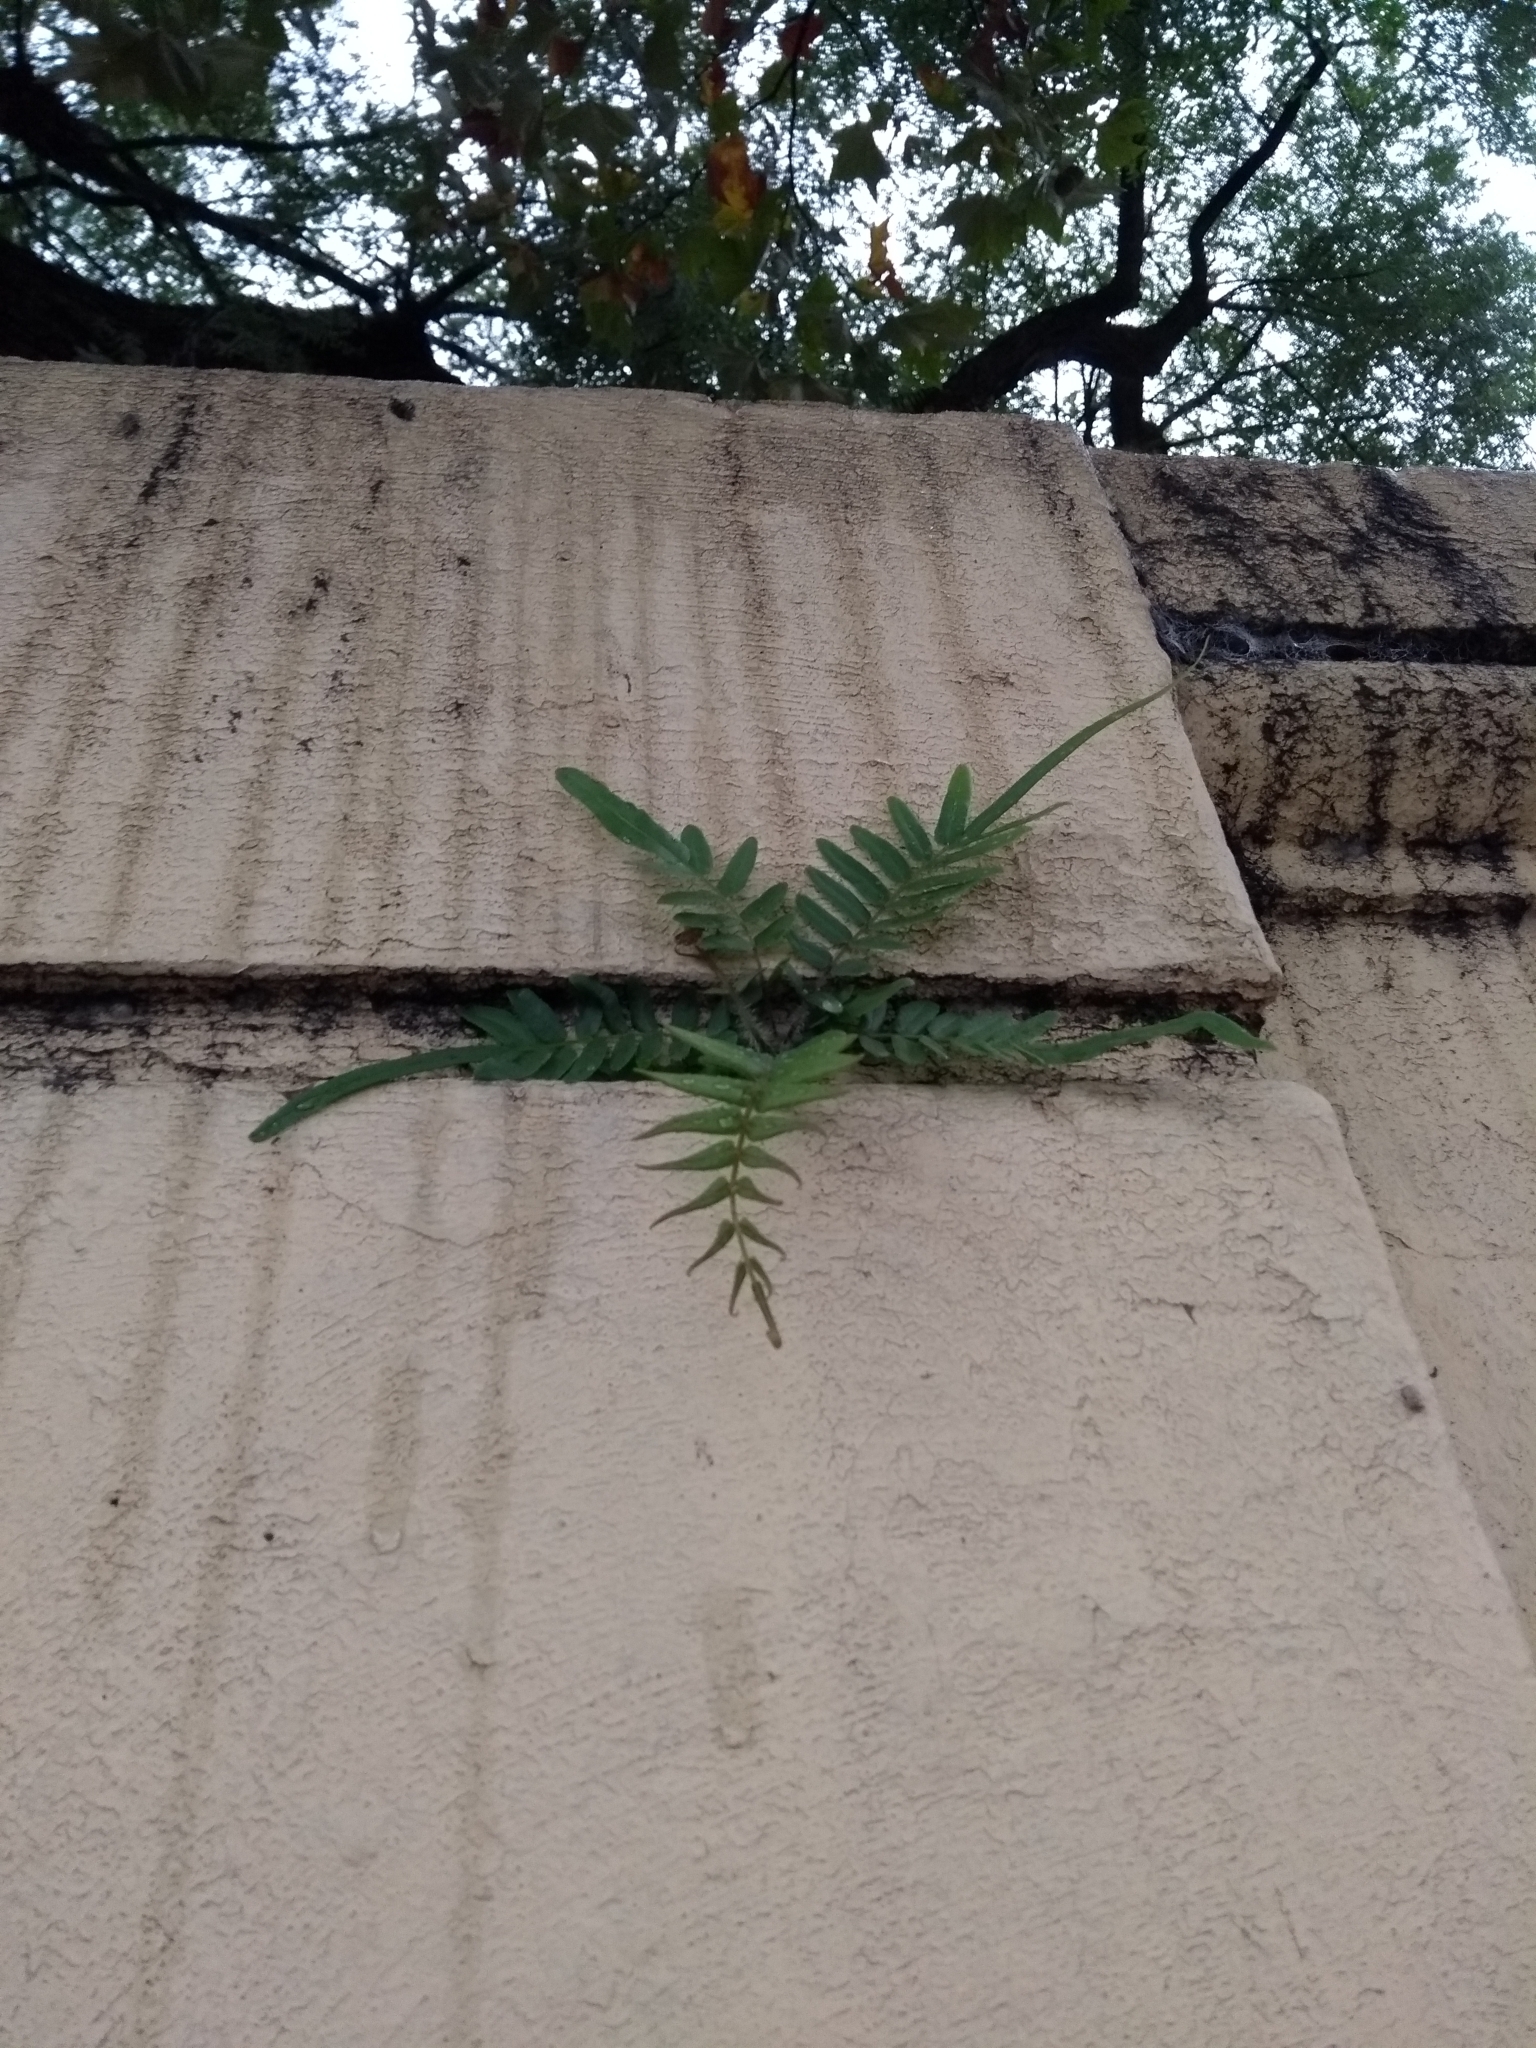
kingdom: Plantae
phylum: Tracheophyta
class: Polypodiopsida
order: Polypodiales
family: Pteridaceae
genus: Pteris
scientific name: Pteris vittata
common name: Ladder brake
